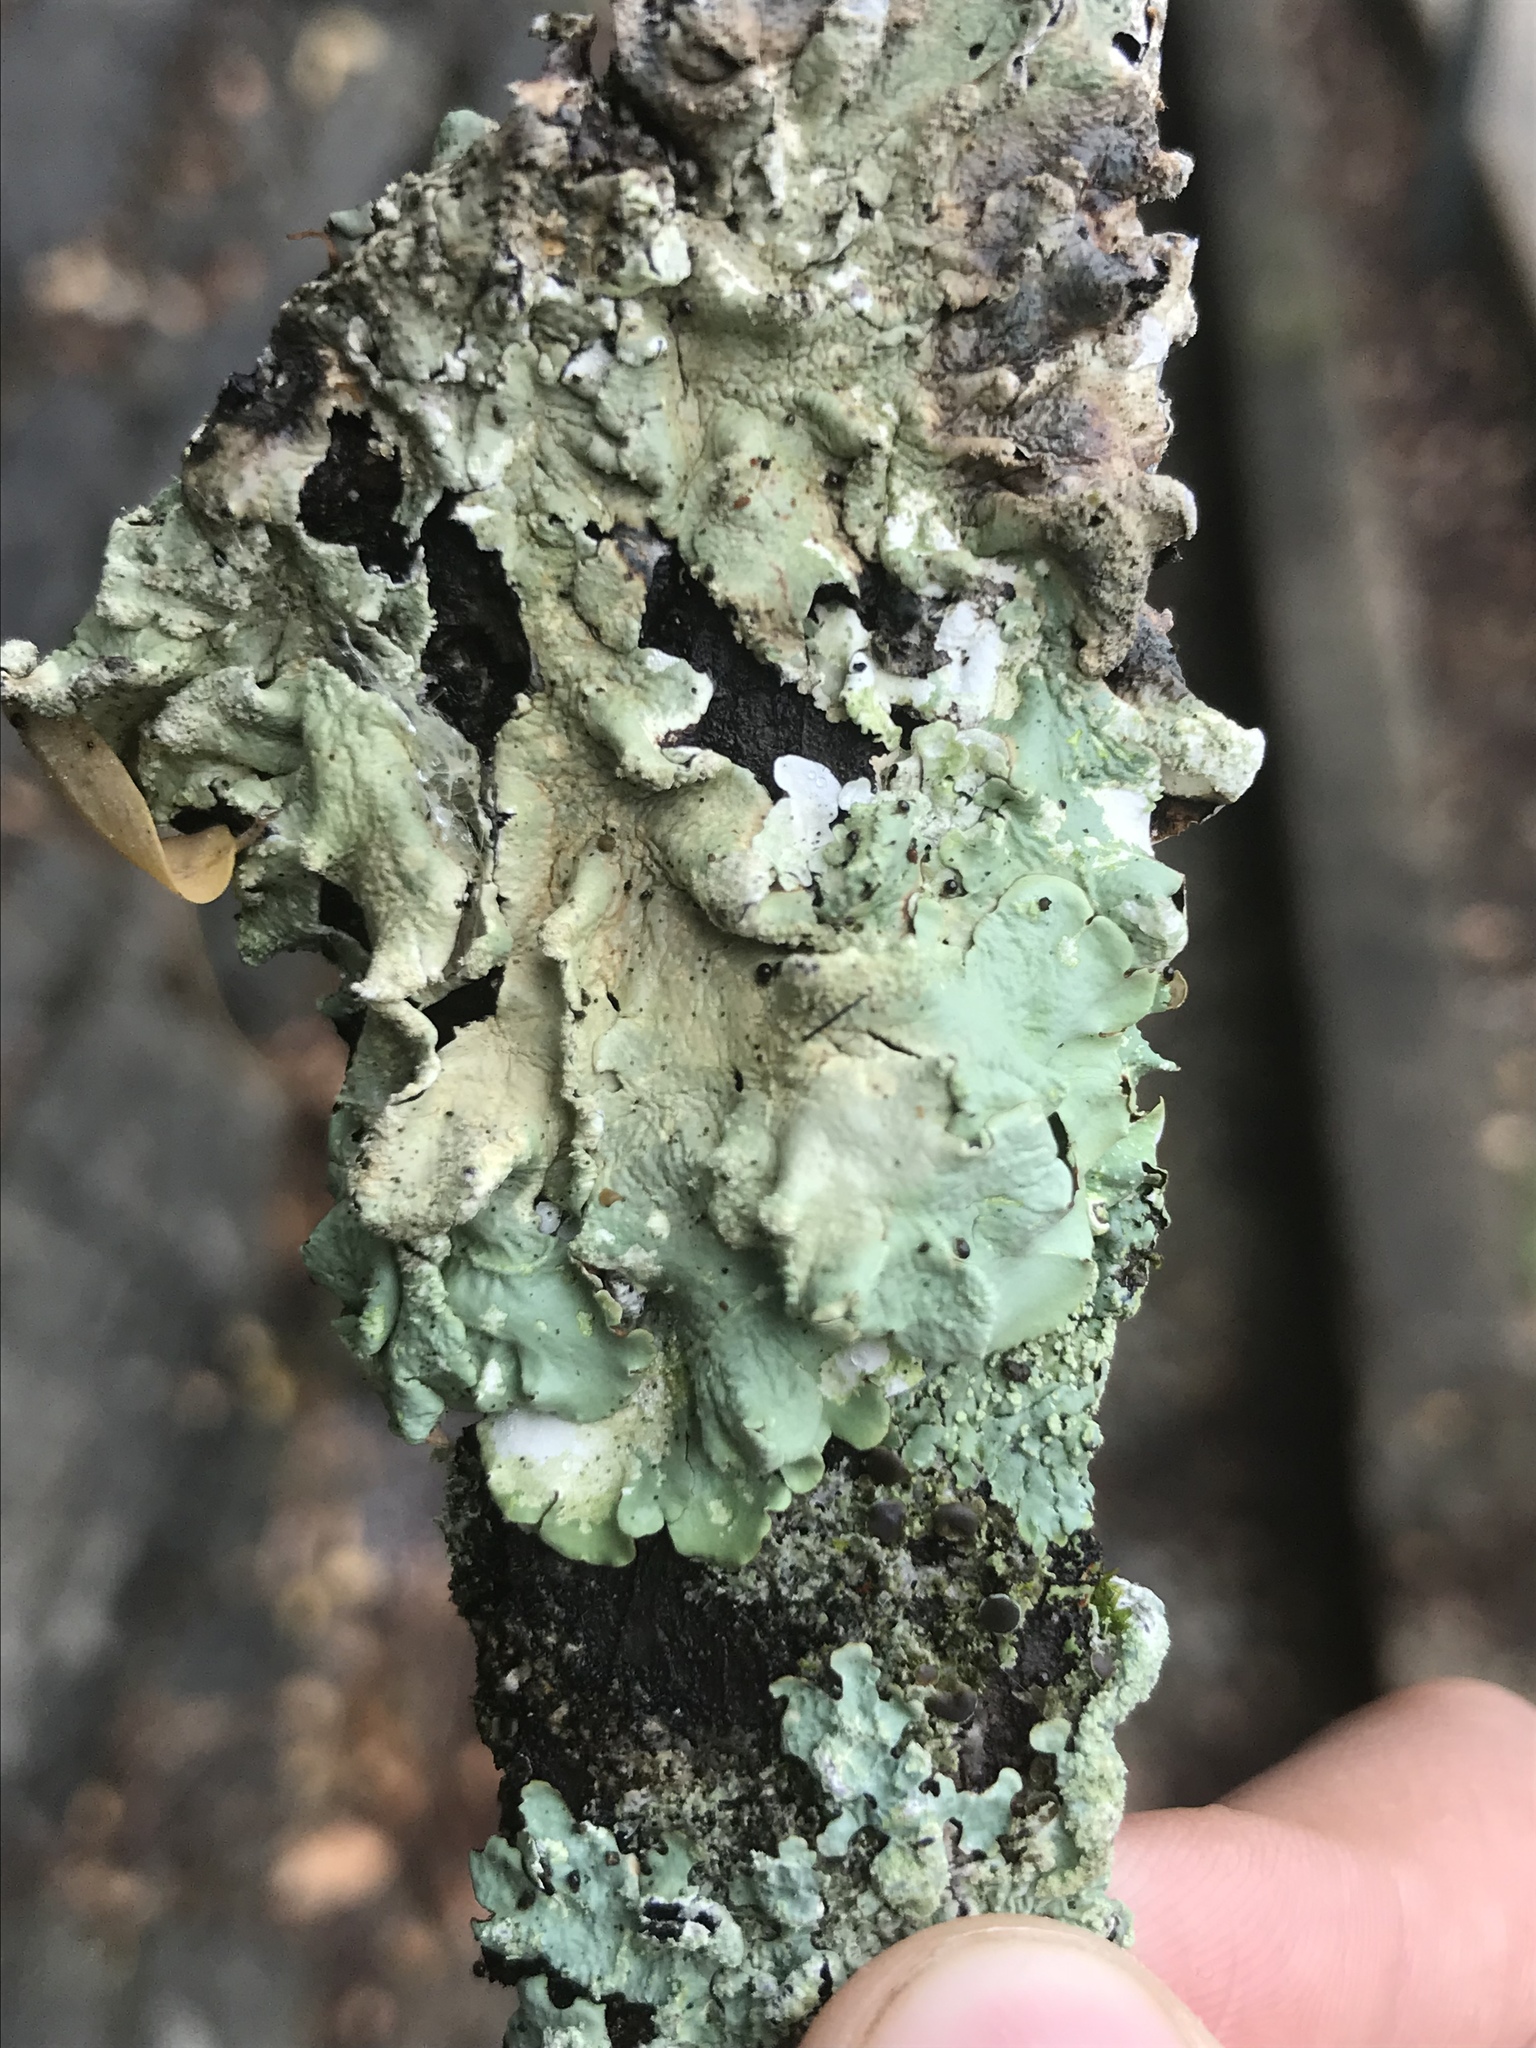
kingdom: Fungi
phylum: Ascomycota
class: Lecanoromycetes
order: Lecanorales
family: Parmeliaceae
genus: Flavoparmelia
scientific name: Flavoparmelia caperata
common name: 40-mile per hour lichen
